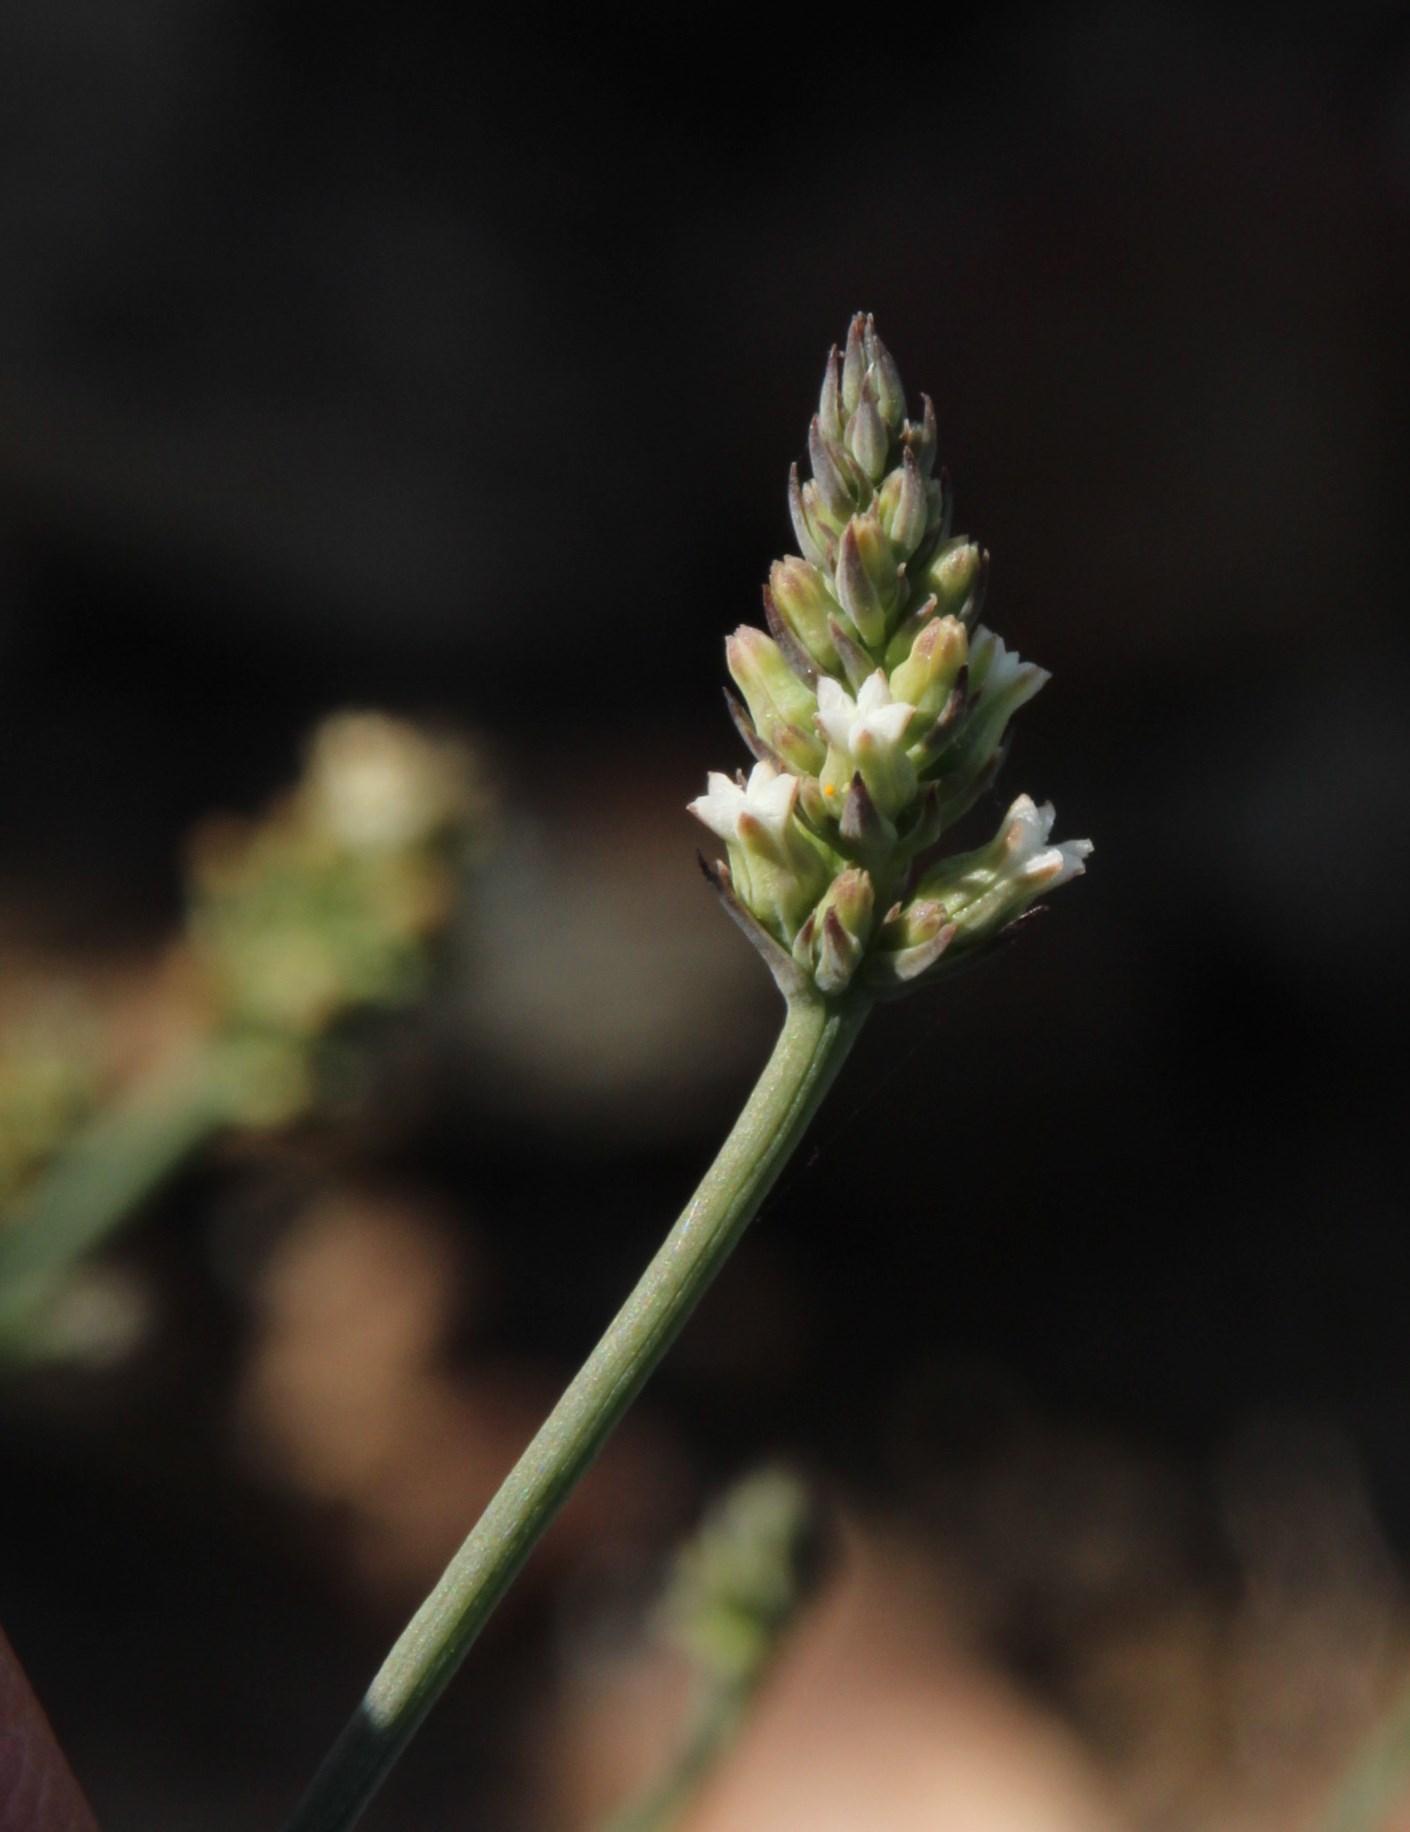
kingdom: Plantae
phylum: Tracheophyta
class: Magnoliopsida
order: Santalales
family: Thesiaceae
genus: Thesium
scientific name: Thesium funale
